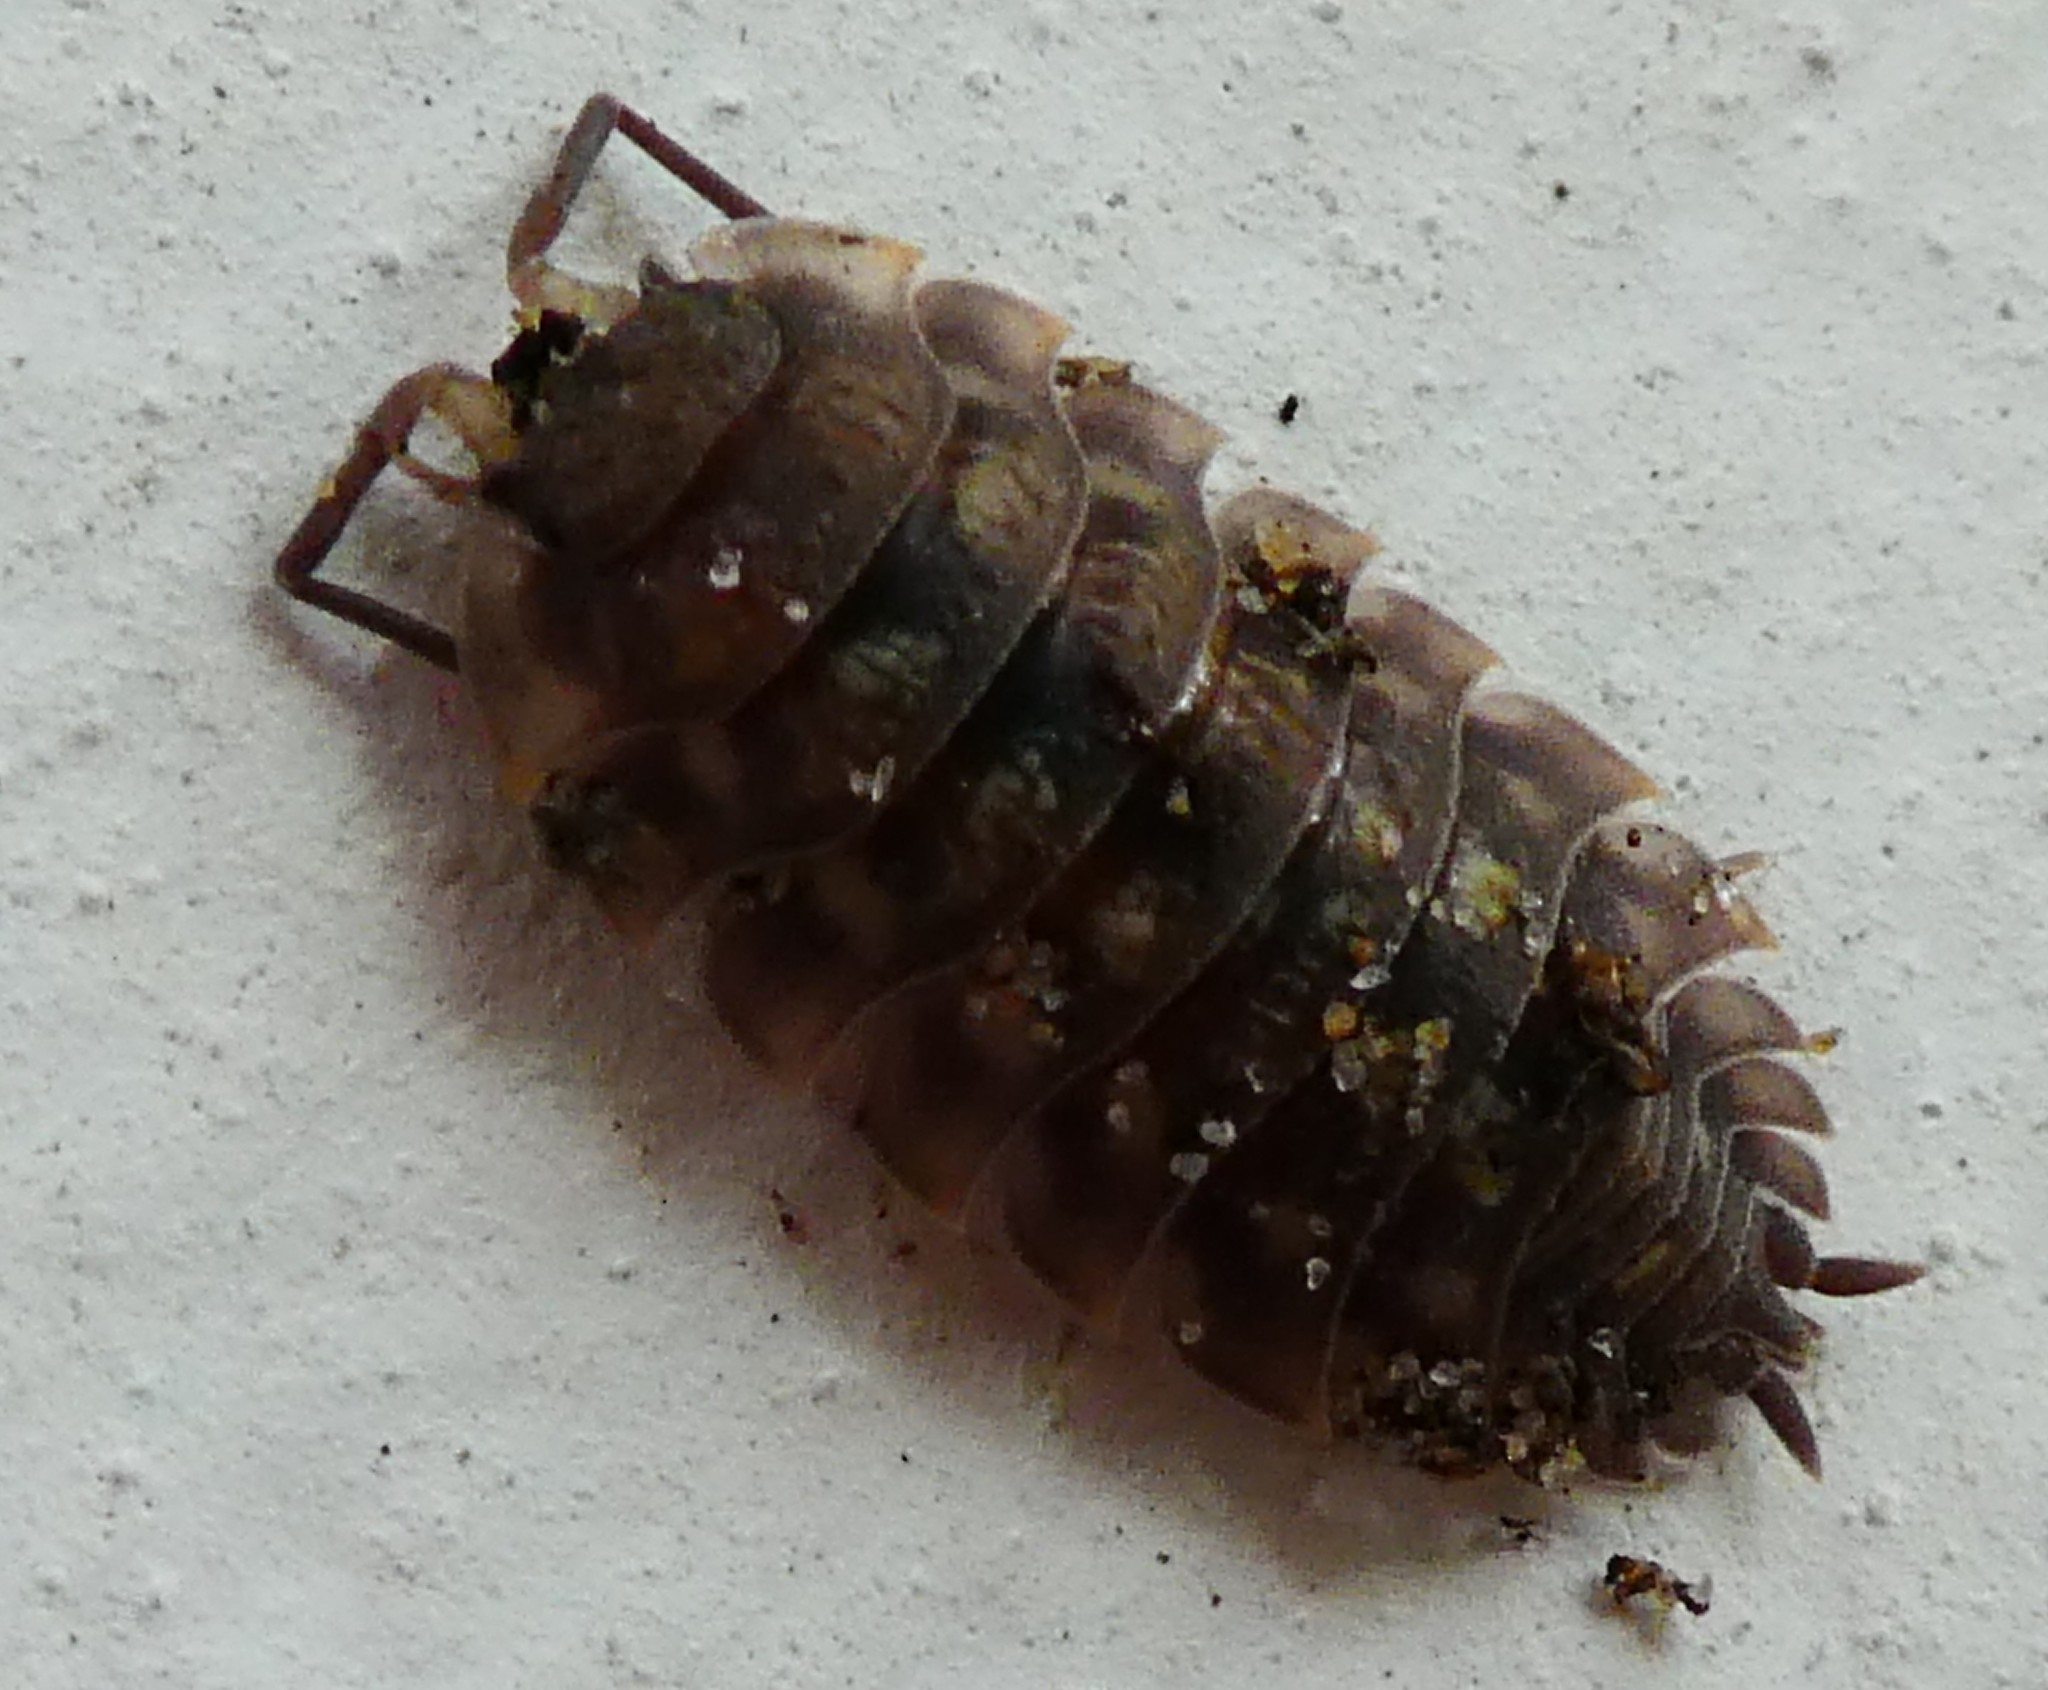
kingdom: Animalia
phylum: Arthropoda
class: Malacostraca
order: Isopoda
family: Oniscidae
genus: Oniscus
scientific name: Oniscus asellus
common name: Common shiny woodlouse
